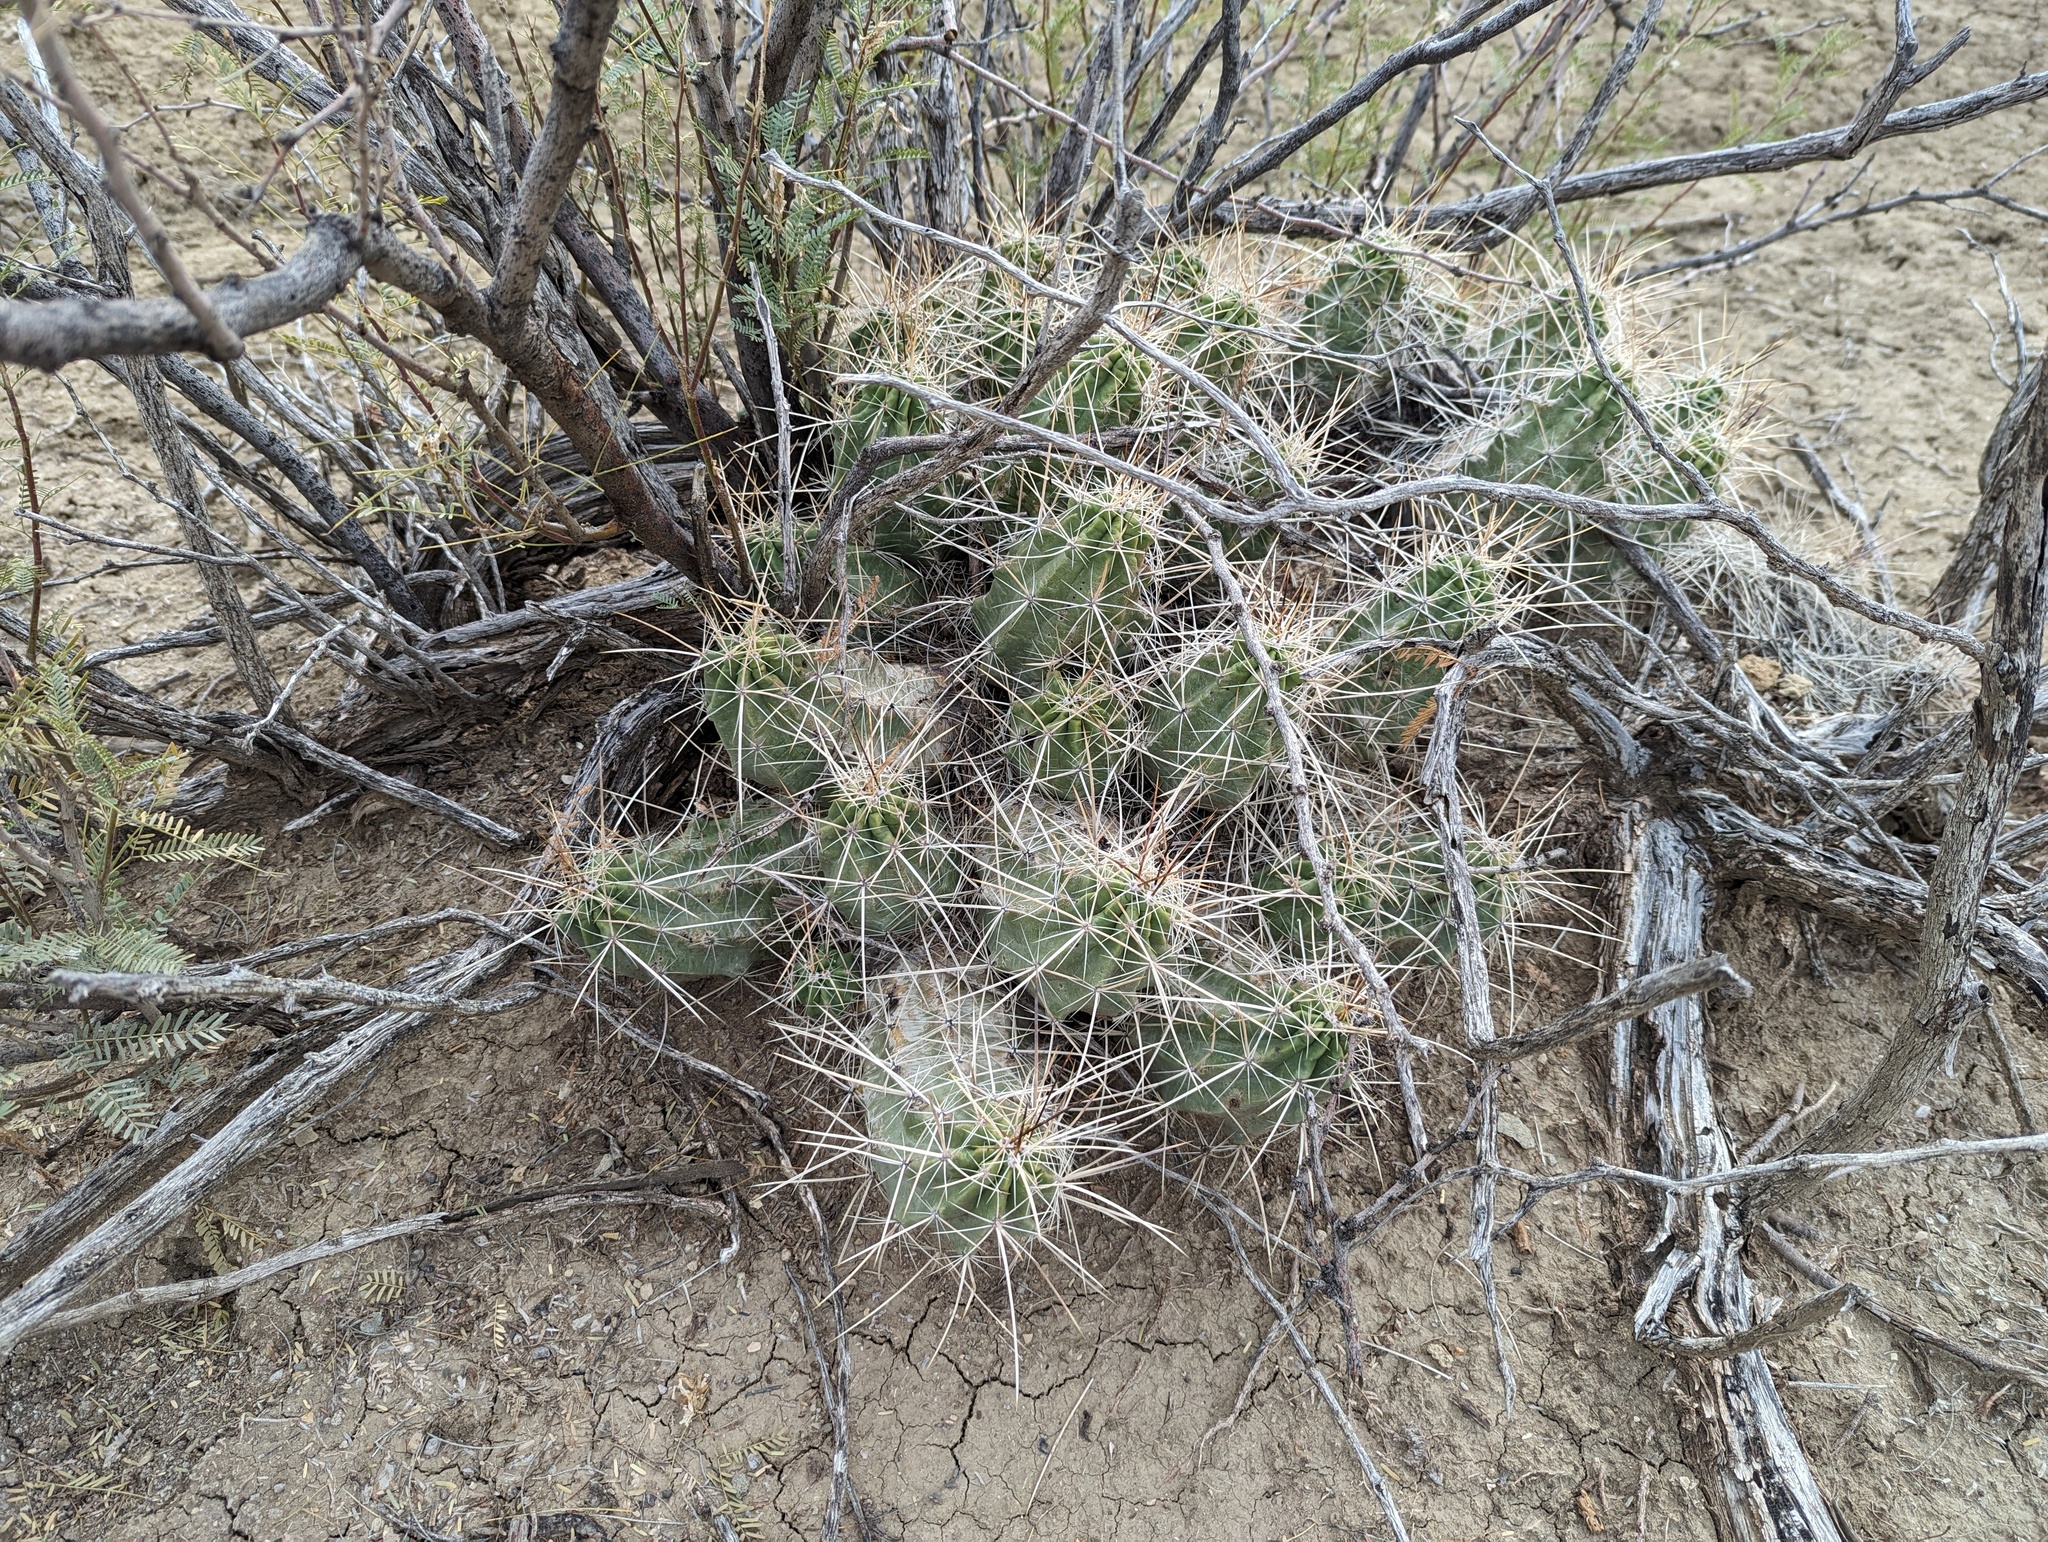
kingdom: Plantae
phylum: Tracheophyta
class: Magnoliopsida
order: Caryophyllales
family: Cactaceae
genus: Echinocereus
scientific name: Echinocereus enneacanthus
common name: Pitaya
